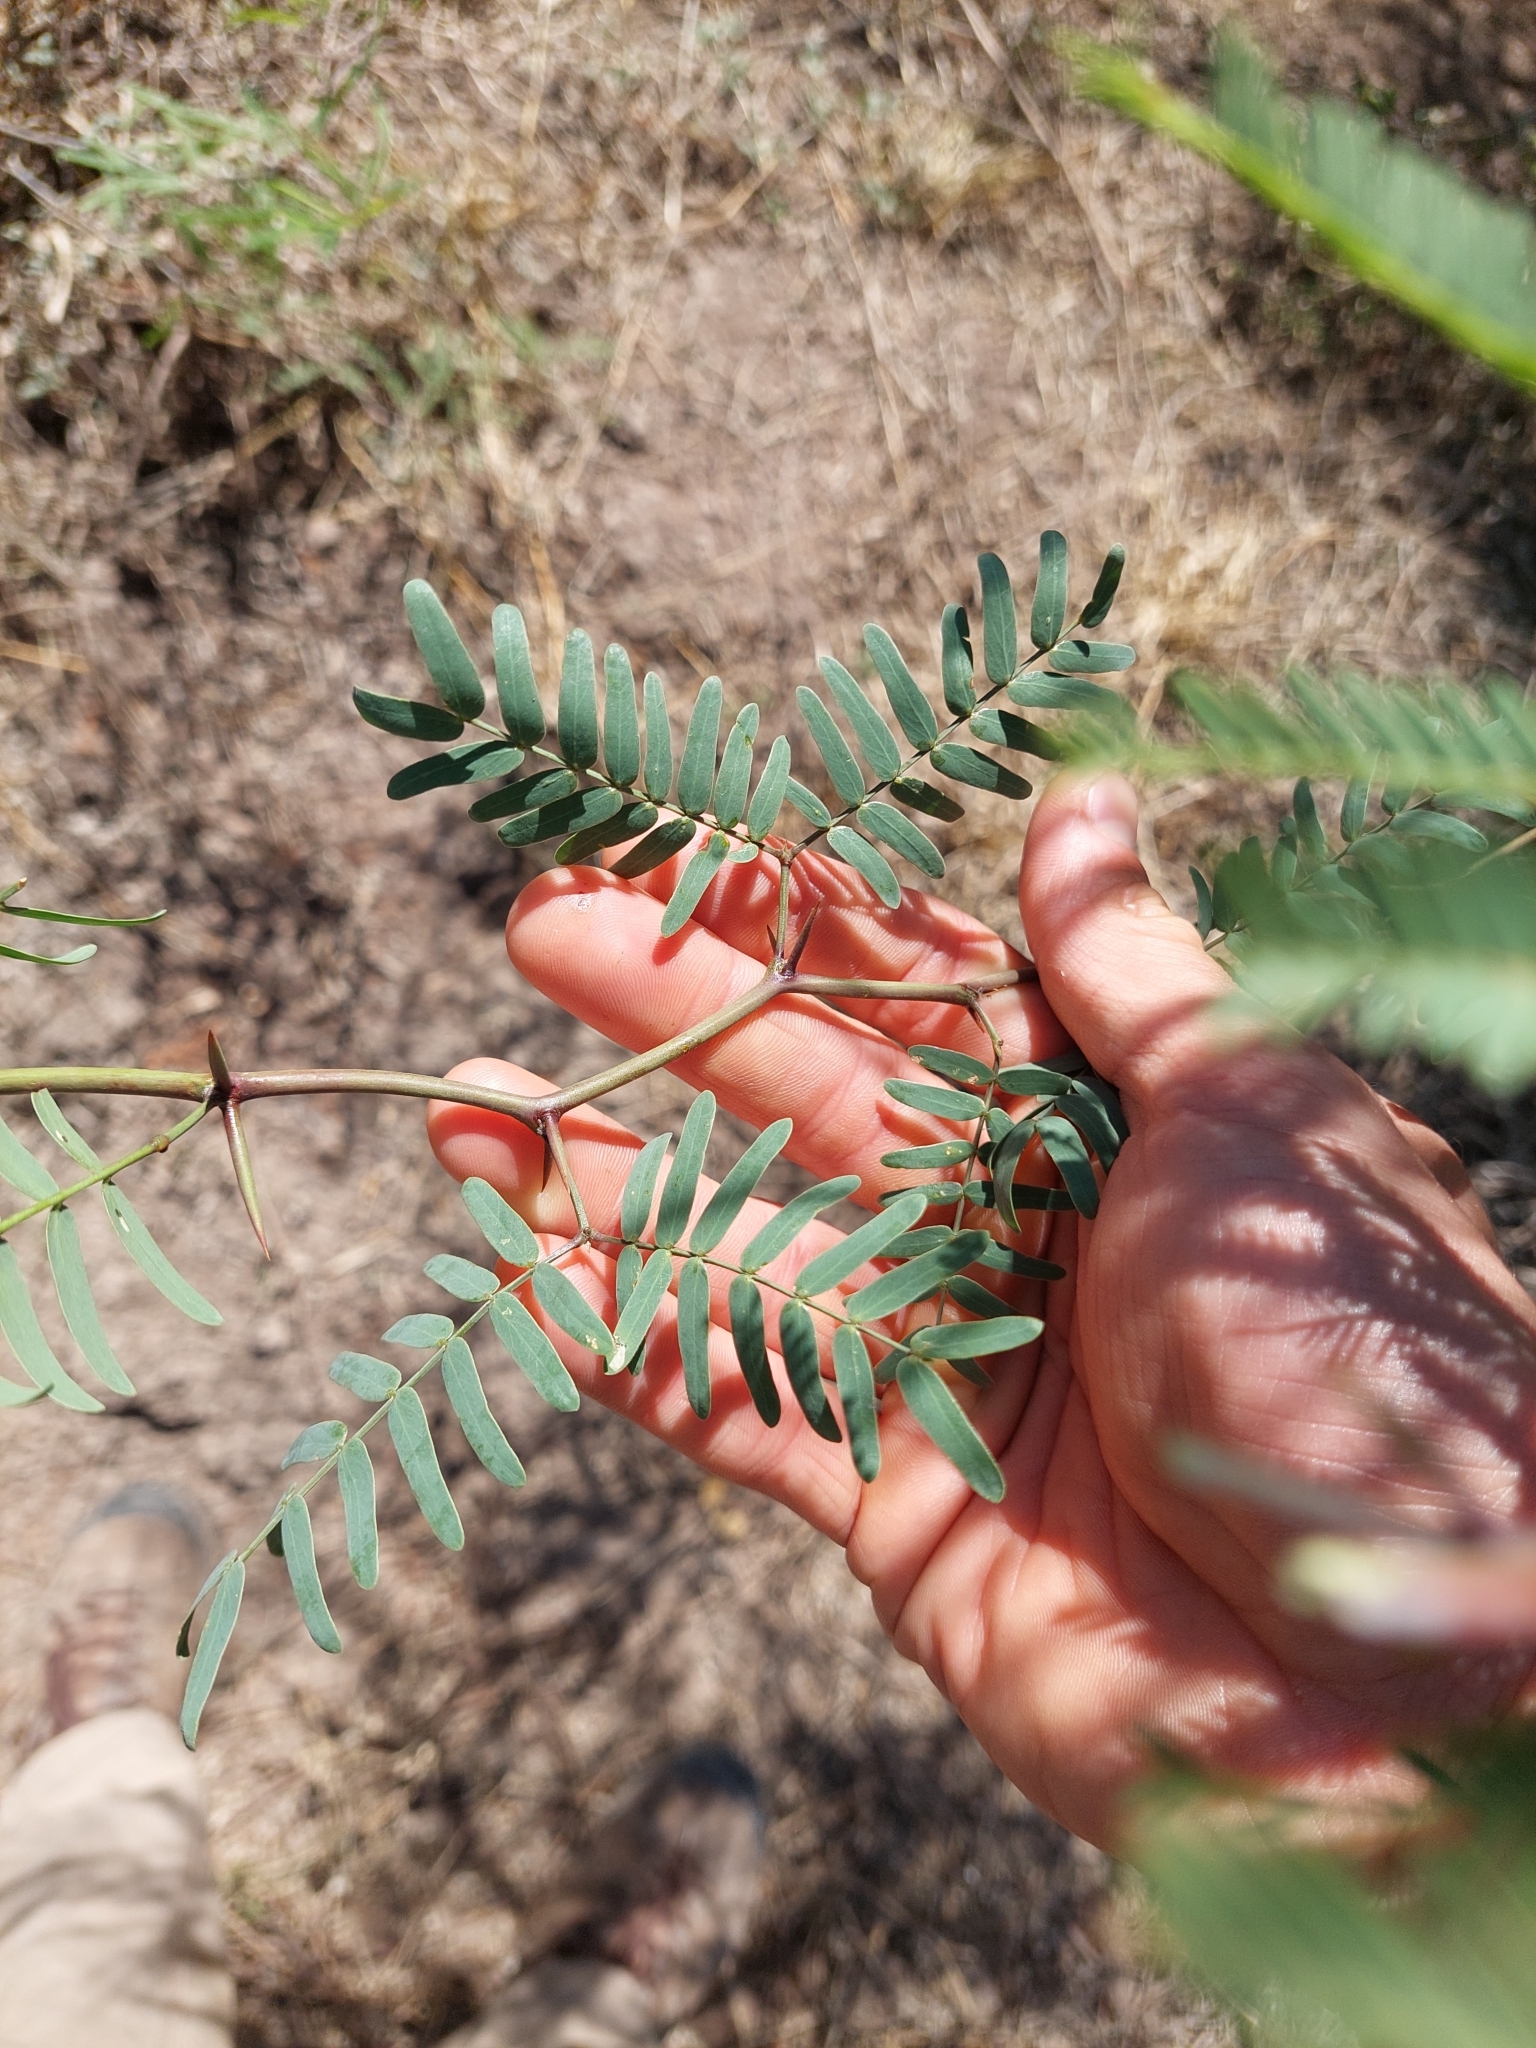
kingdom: Plantae
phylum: Tracheophyta
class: Magnoliopsida
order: Fabales
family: Fabaceae
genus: Prosopis
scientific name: Prosopis vinalillo
